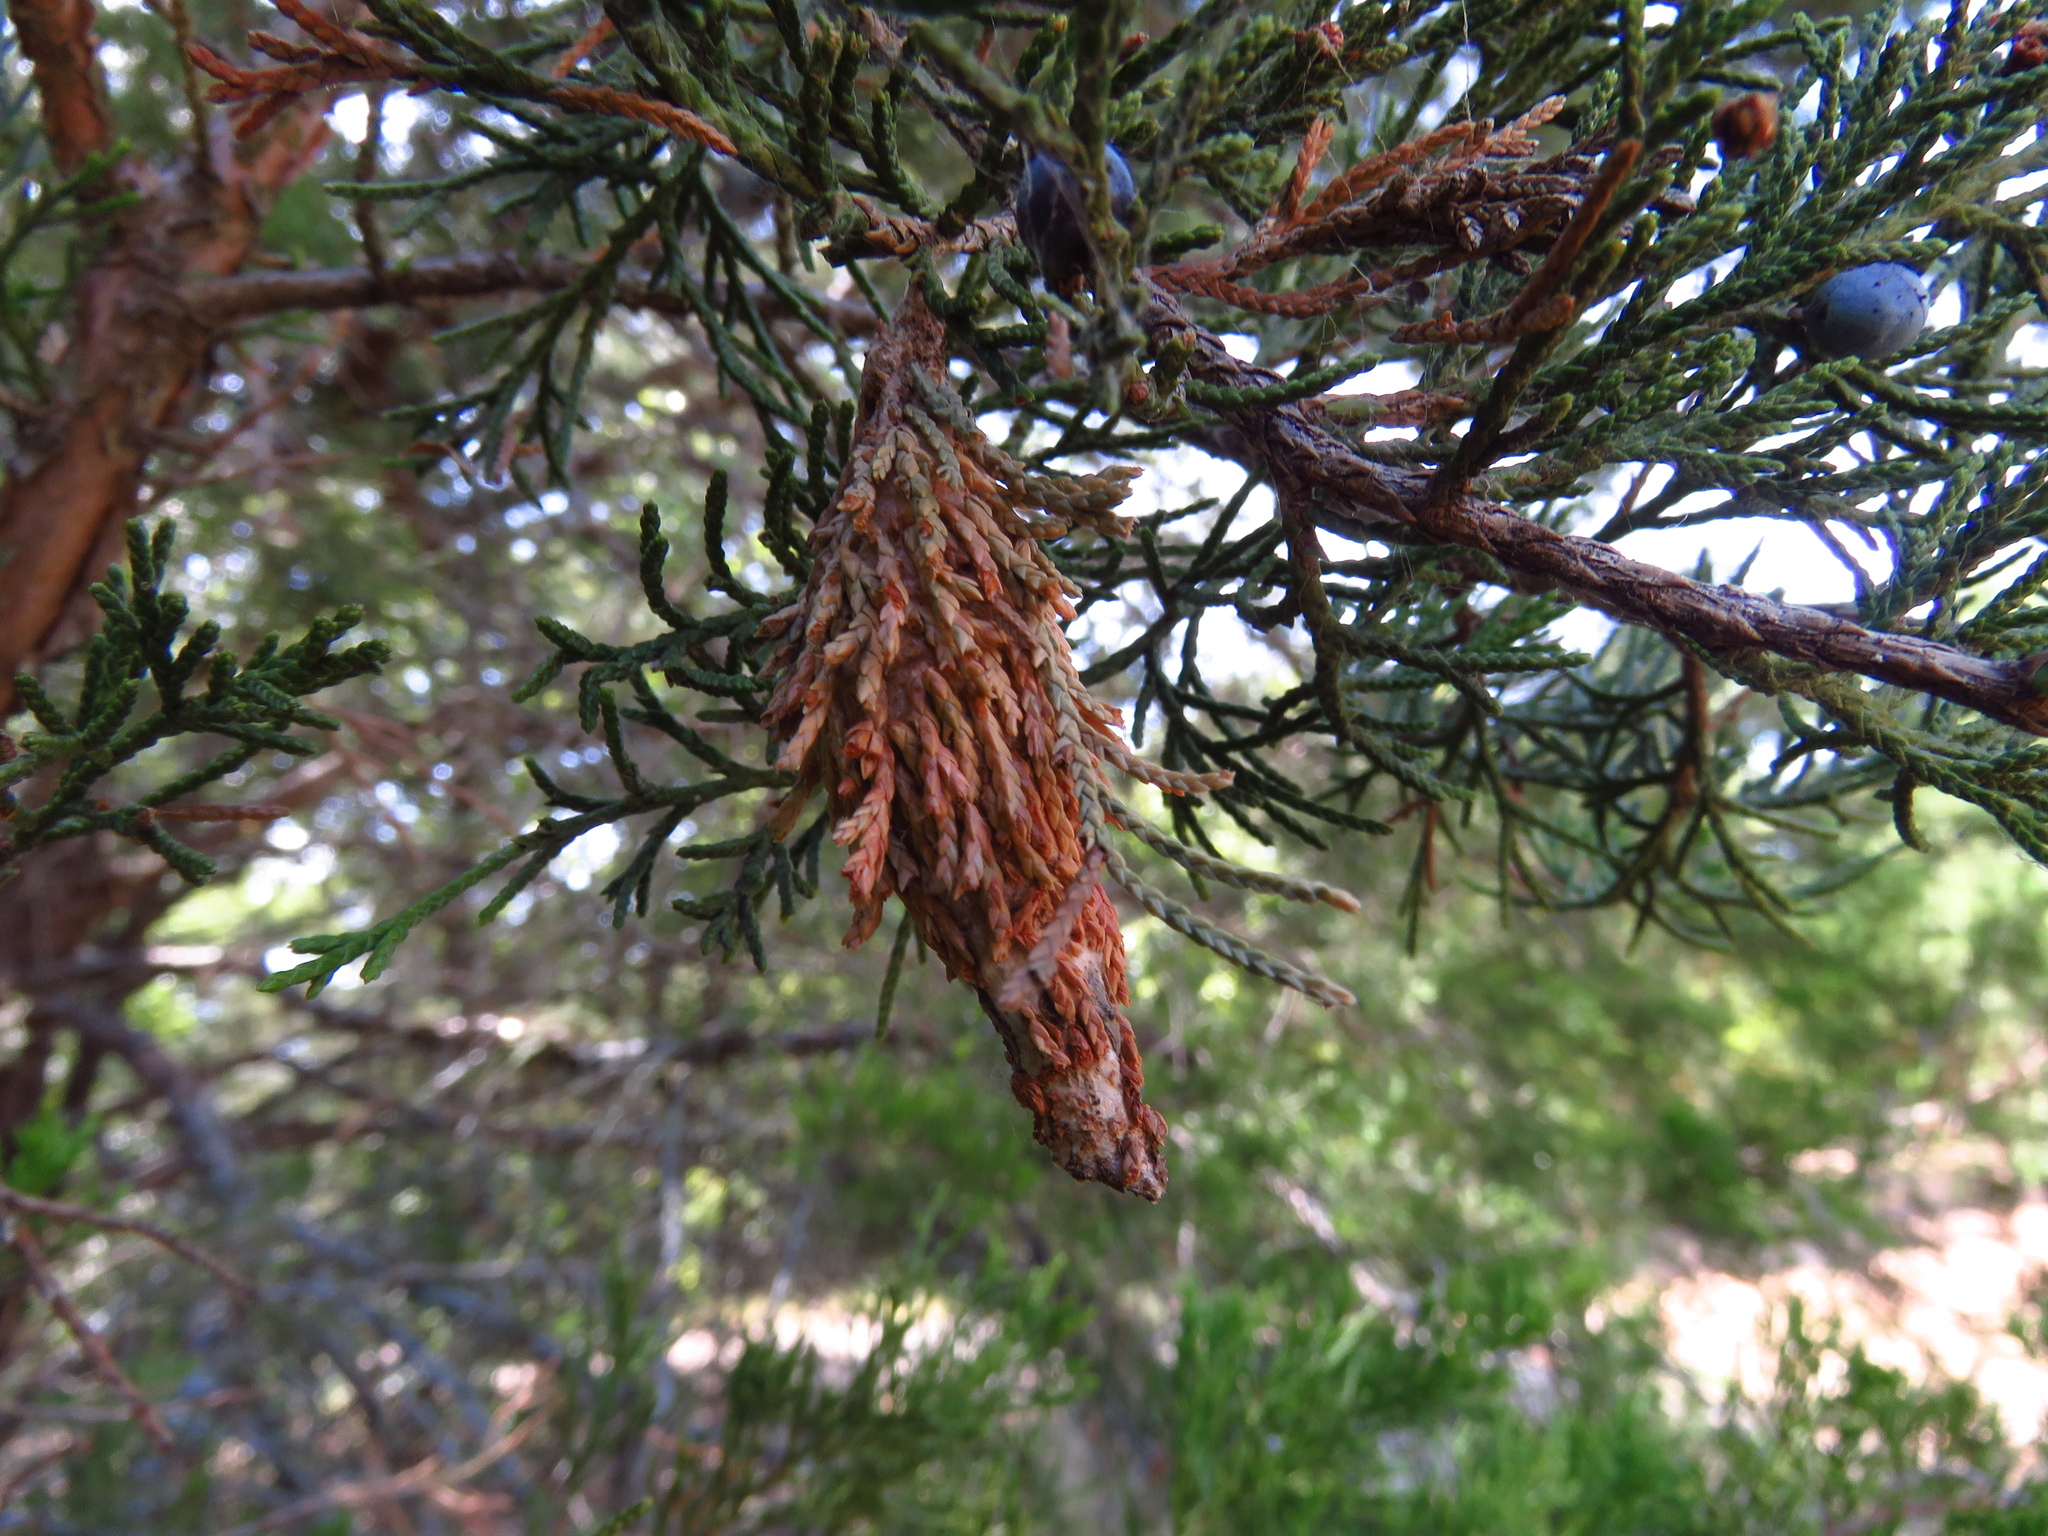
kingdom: Animalia
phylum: Arthropoda
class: Insecta
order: Lepidoptera
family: Psychidae
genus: Thyridopteryx
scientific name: Thyridopteryx ephemeraeformis
